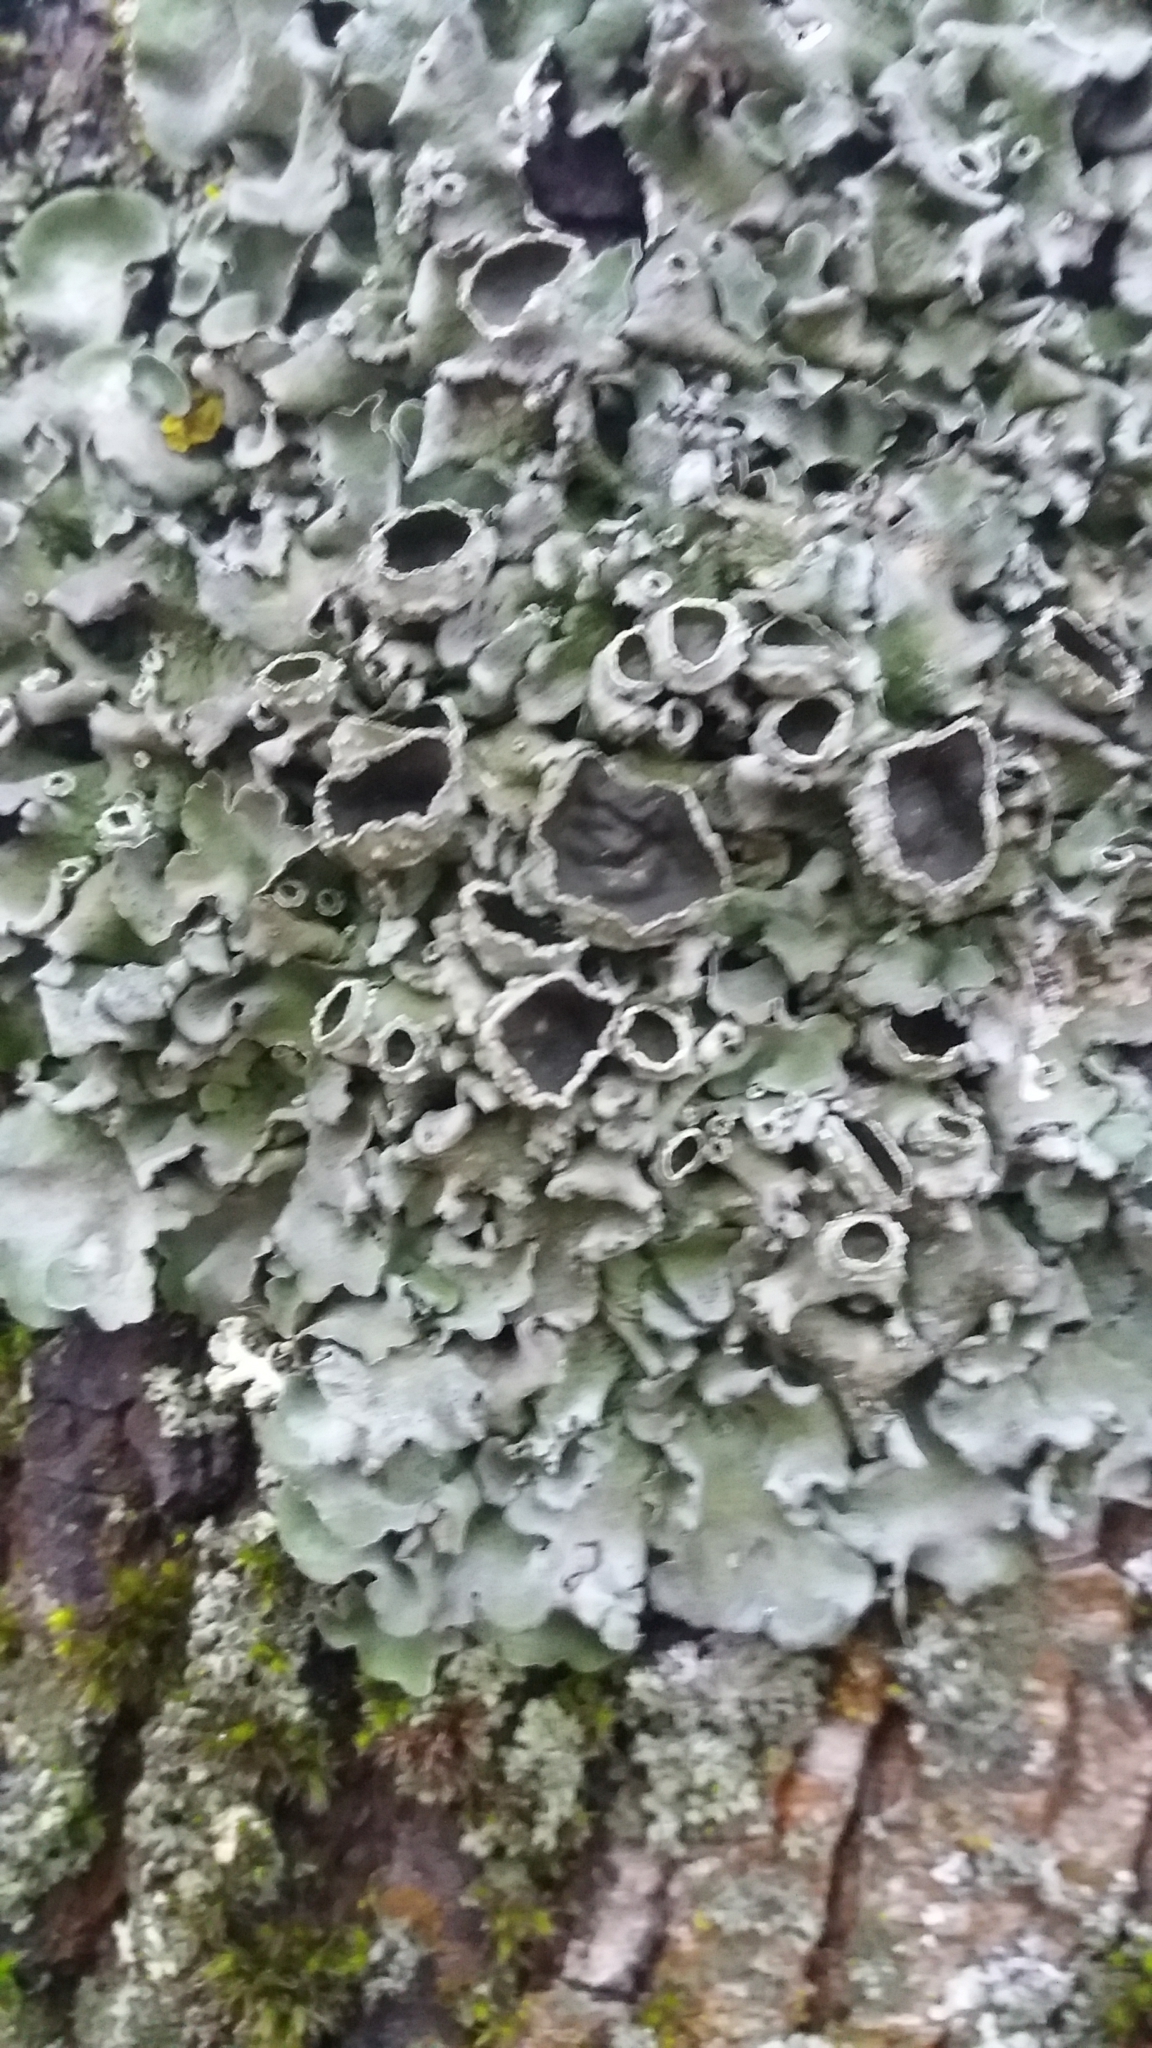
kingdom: Fungi
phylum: Ascomycota
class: Lecanoromycetes
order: Lecanorales
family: Parmeliaceae
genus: Pleurosticta
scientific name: Pleurosticta acetabulum
